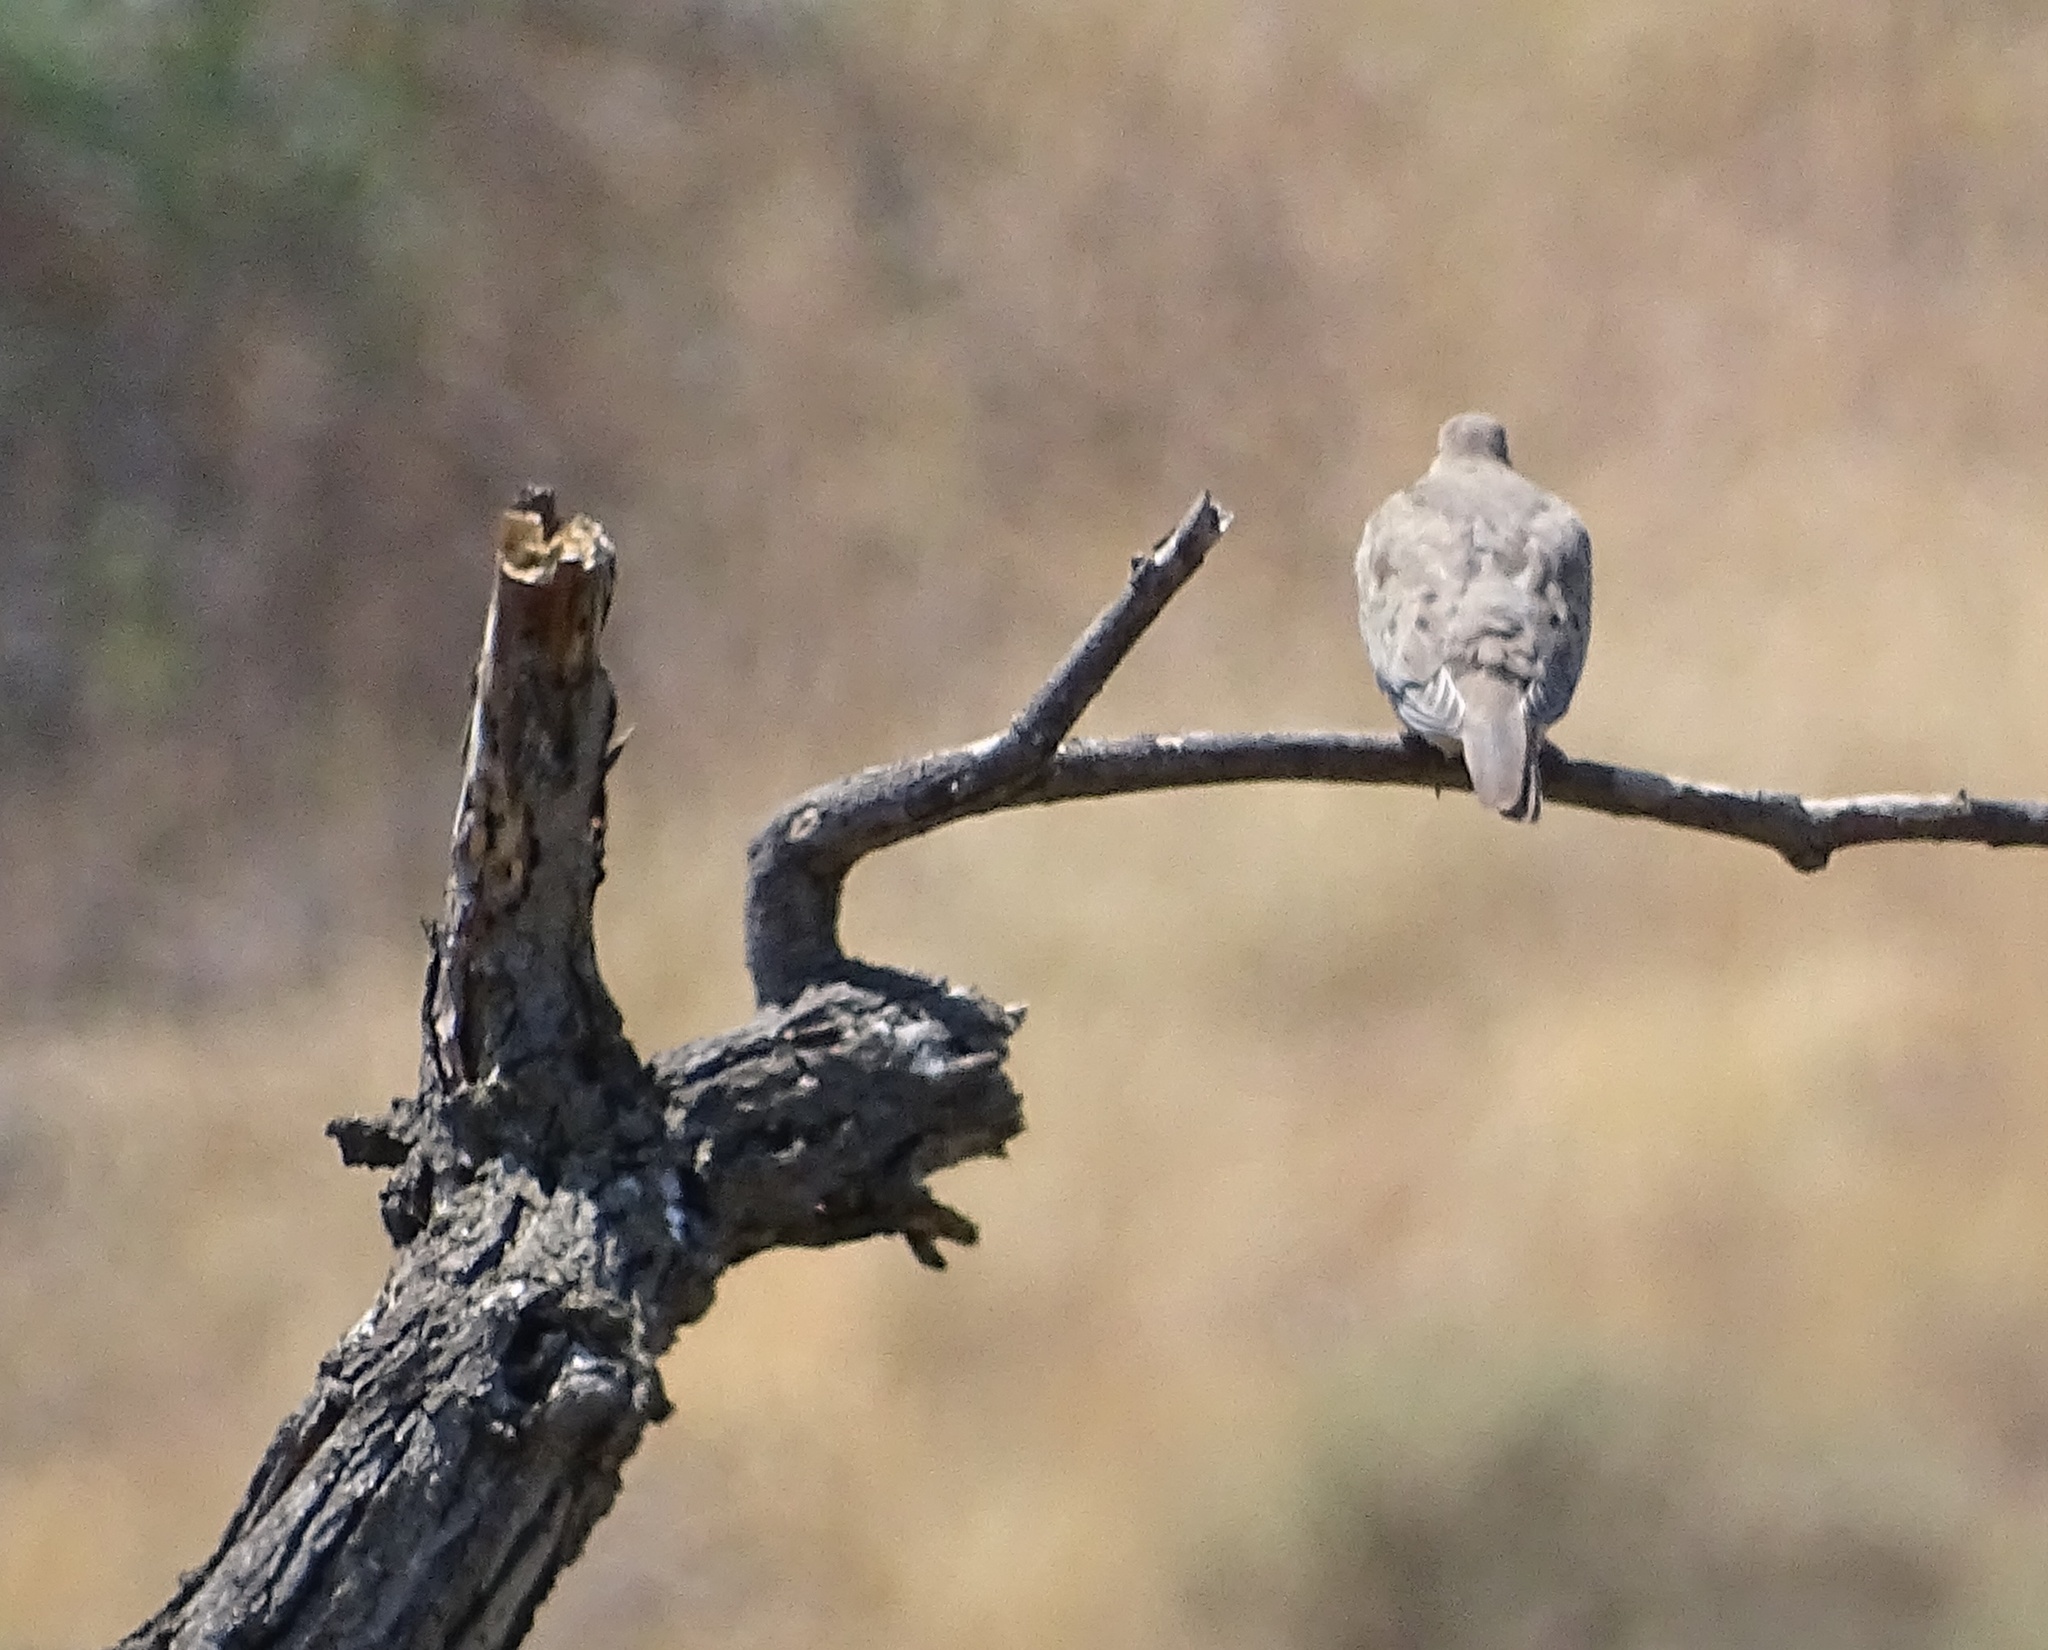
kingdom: Animalia
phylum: Chordata
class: Aves
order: Columbiformes
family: Columbidae
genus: Zenaida
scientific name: Zenaida macroura
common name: Mourning dove
